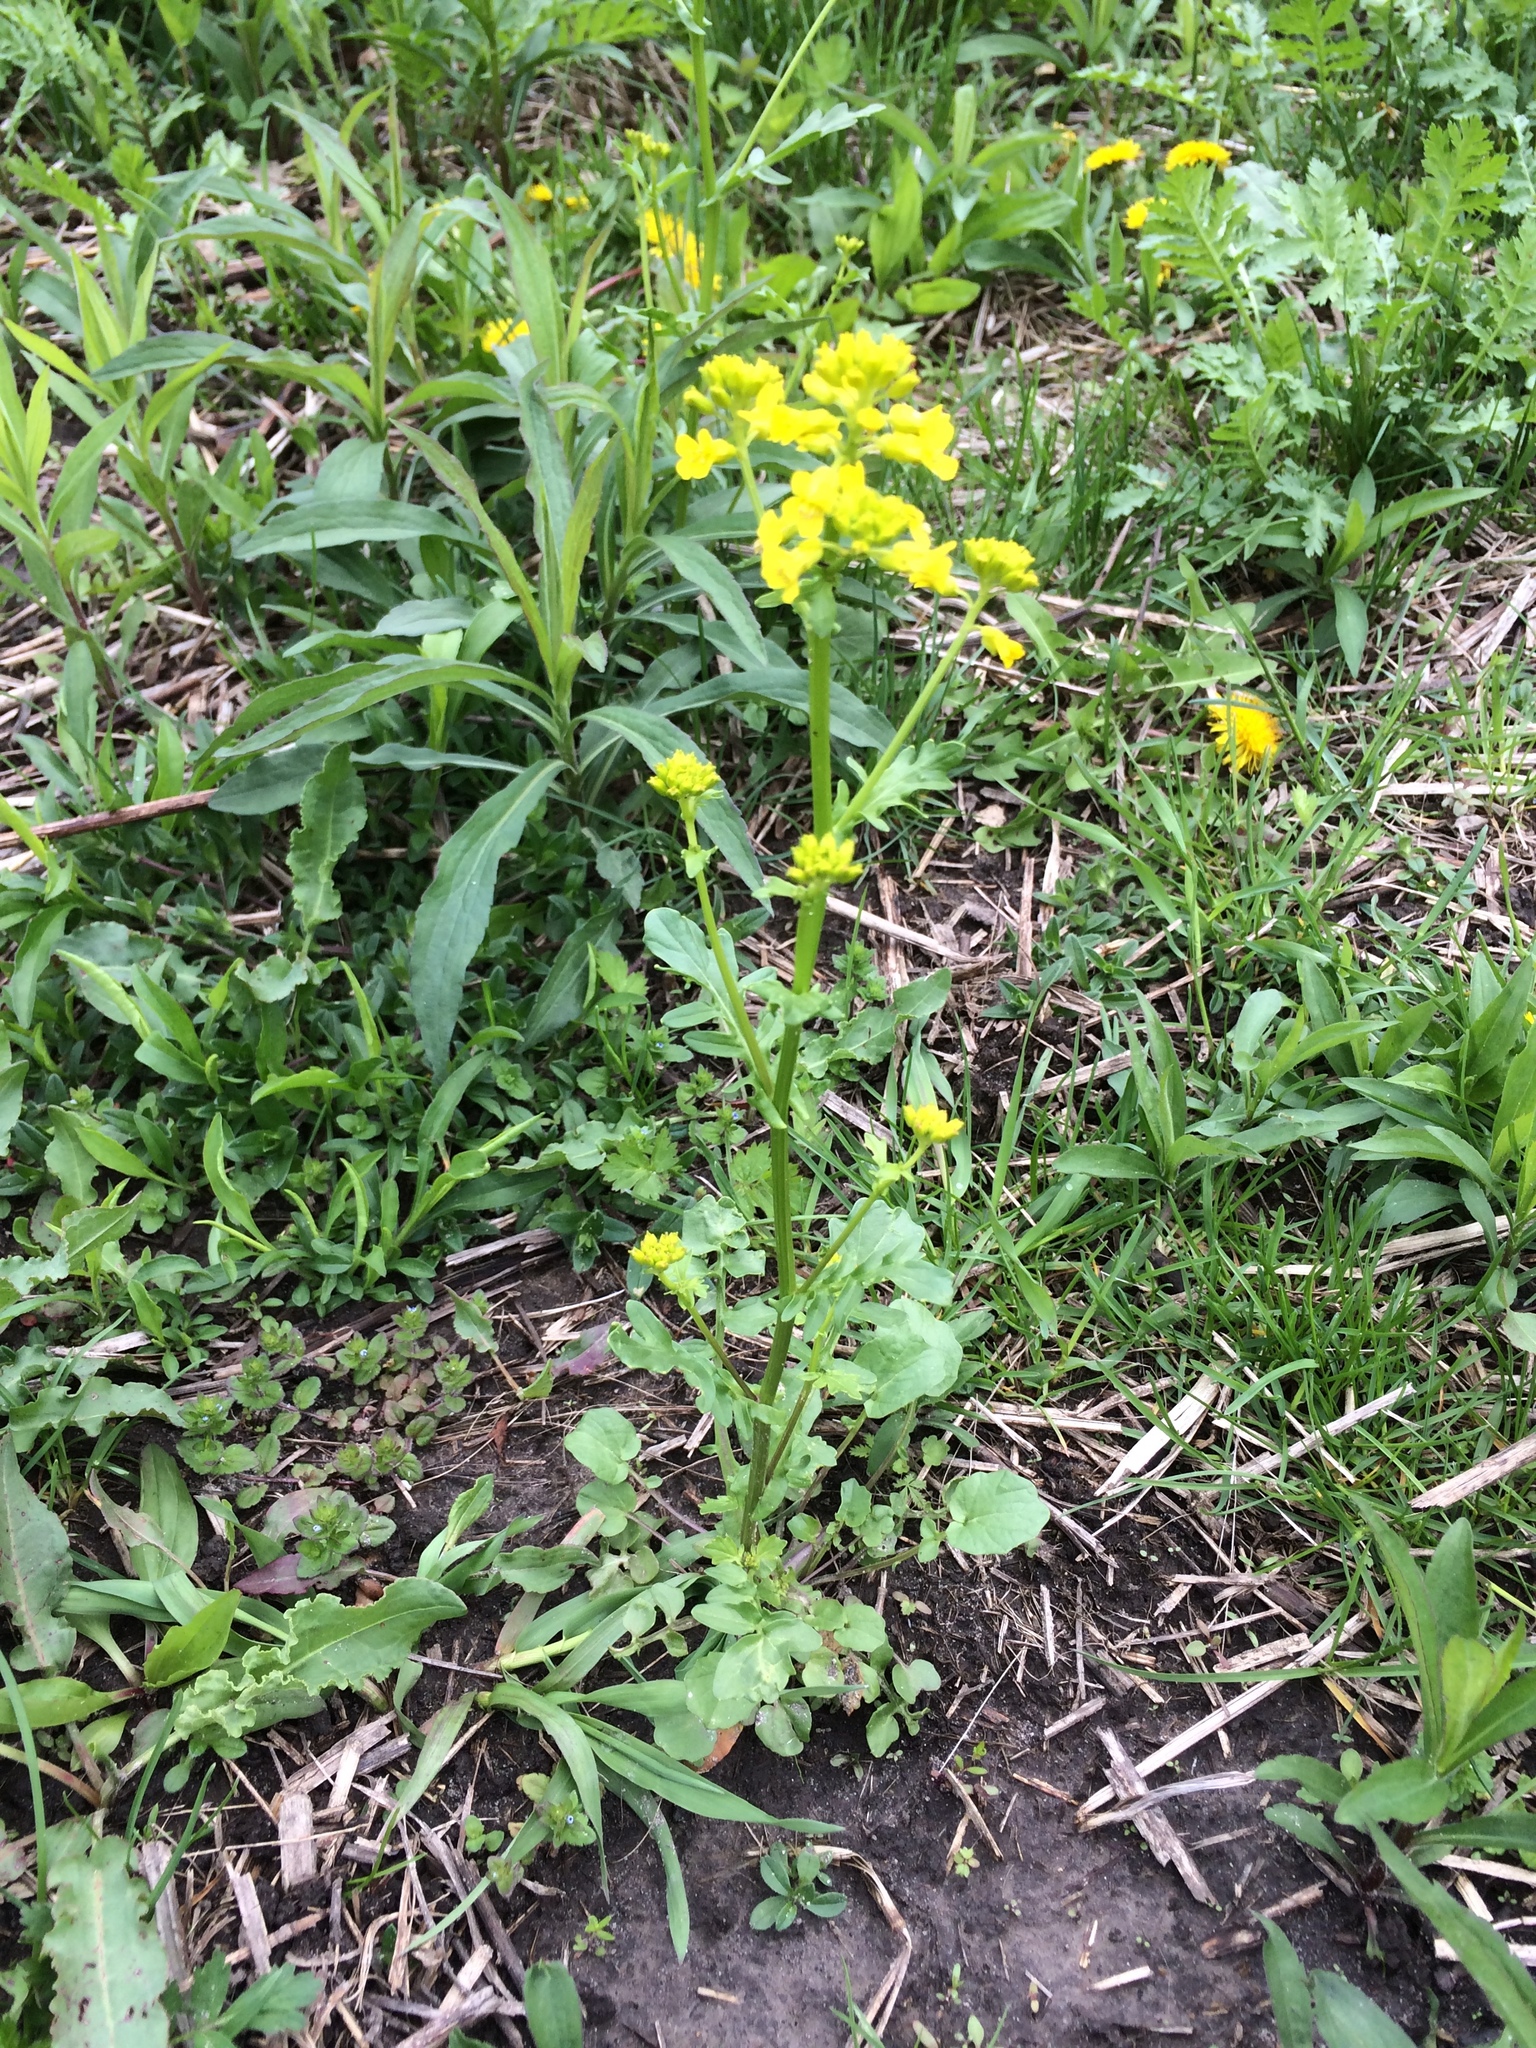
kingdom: Plantae
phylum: Tracheophyta
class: Magnoliopsida
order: Brassicales
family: Brassicaceae
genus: Barbarea
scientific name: Barbarea vulgaris
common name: Cressy-greens
